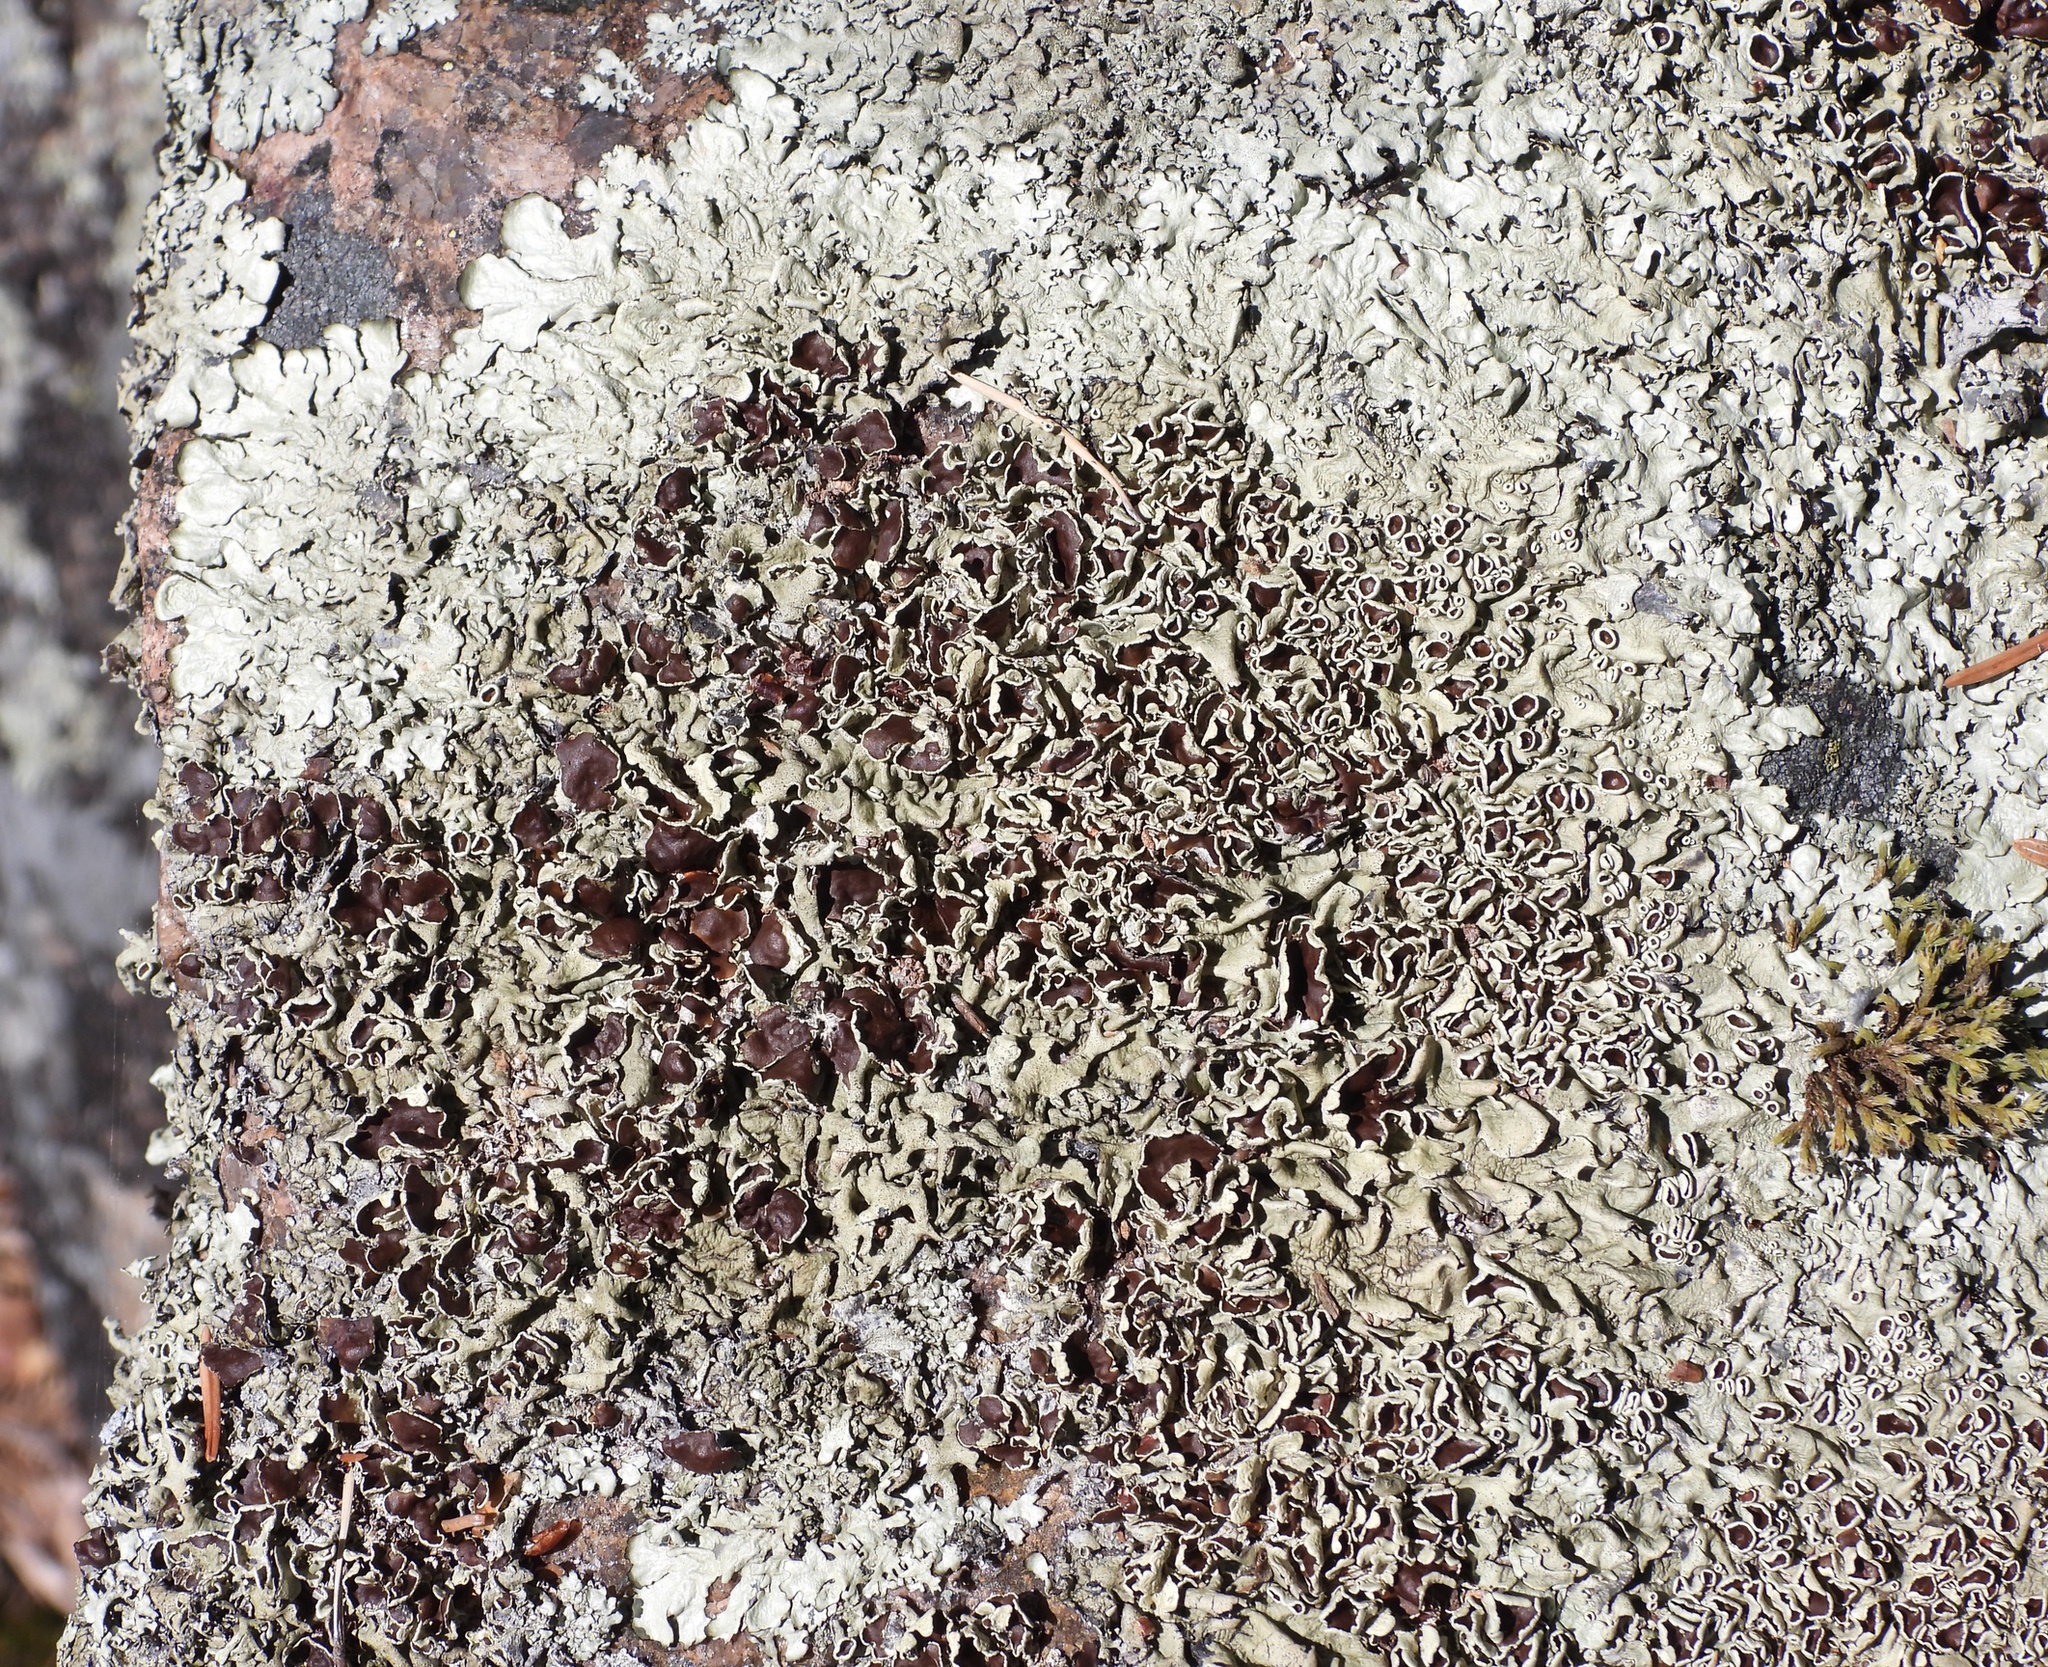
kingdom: Fungi
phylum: Ascomycota
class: Lecanoromycetes
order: Lecanorales
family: Parmeliaceae
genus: Xanthoparmelia
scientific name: Xanthoparmelia stenophylla
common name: Shingled rock shield
